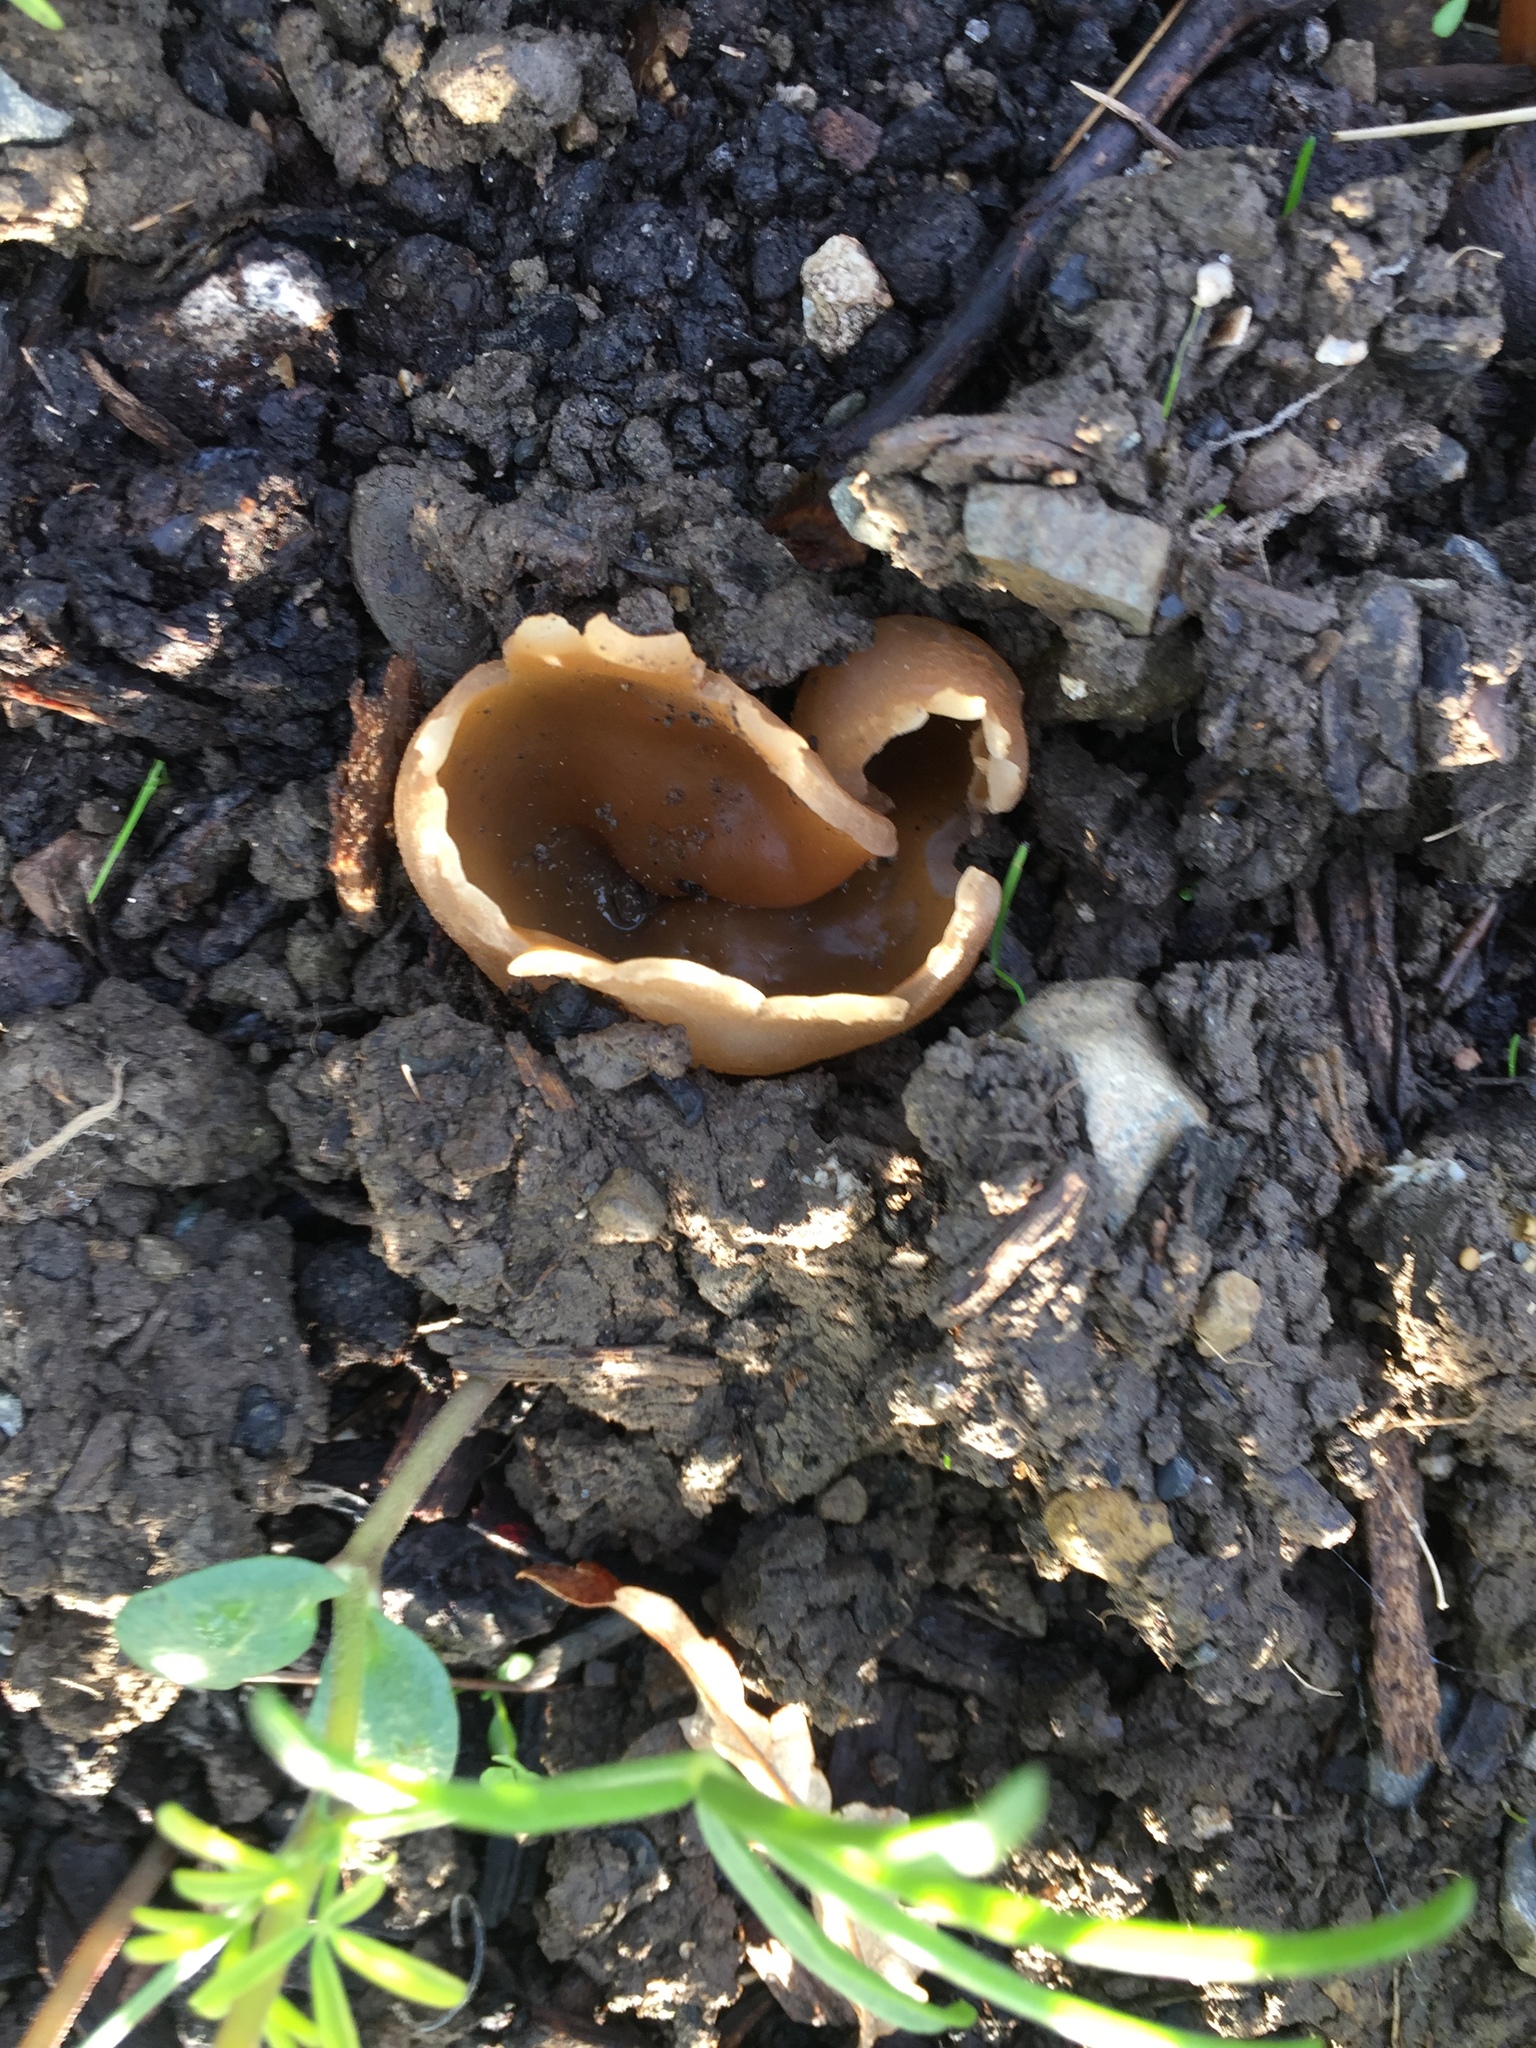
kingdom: Fungi
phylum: Ascomycota
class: Pezizomycetes
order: Pezizales
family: Pezizaceae
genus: Peziza
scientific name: Peziza varia
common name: Layered cup
